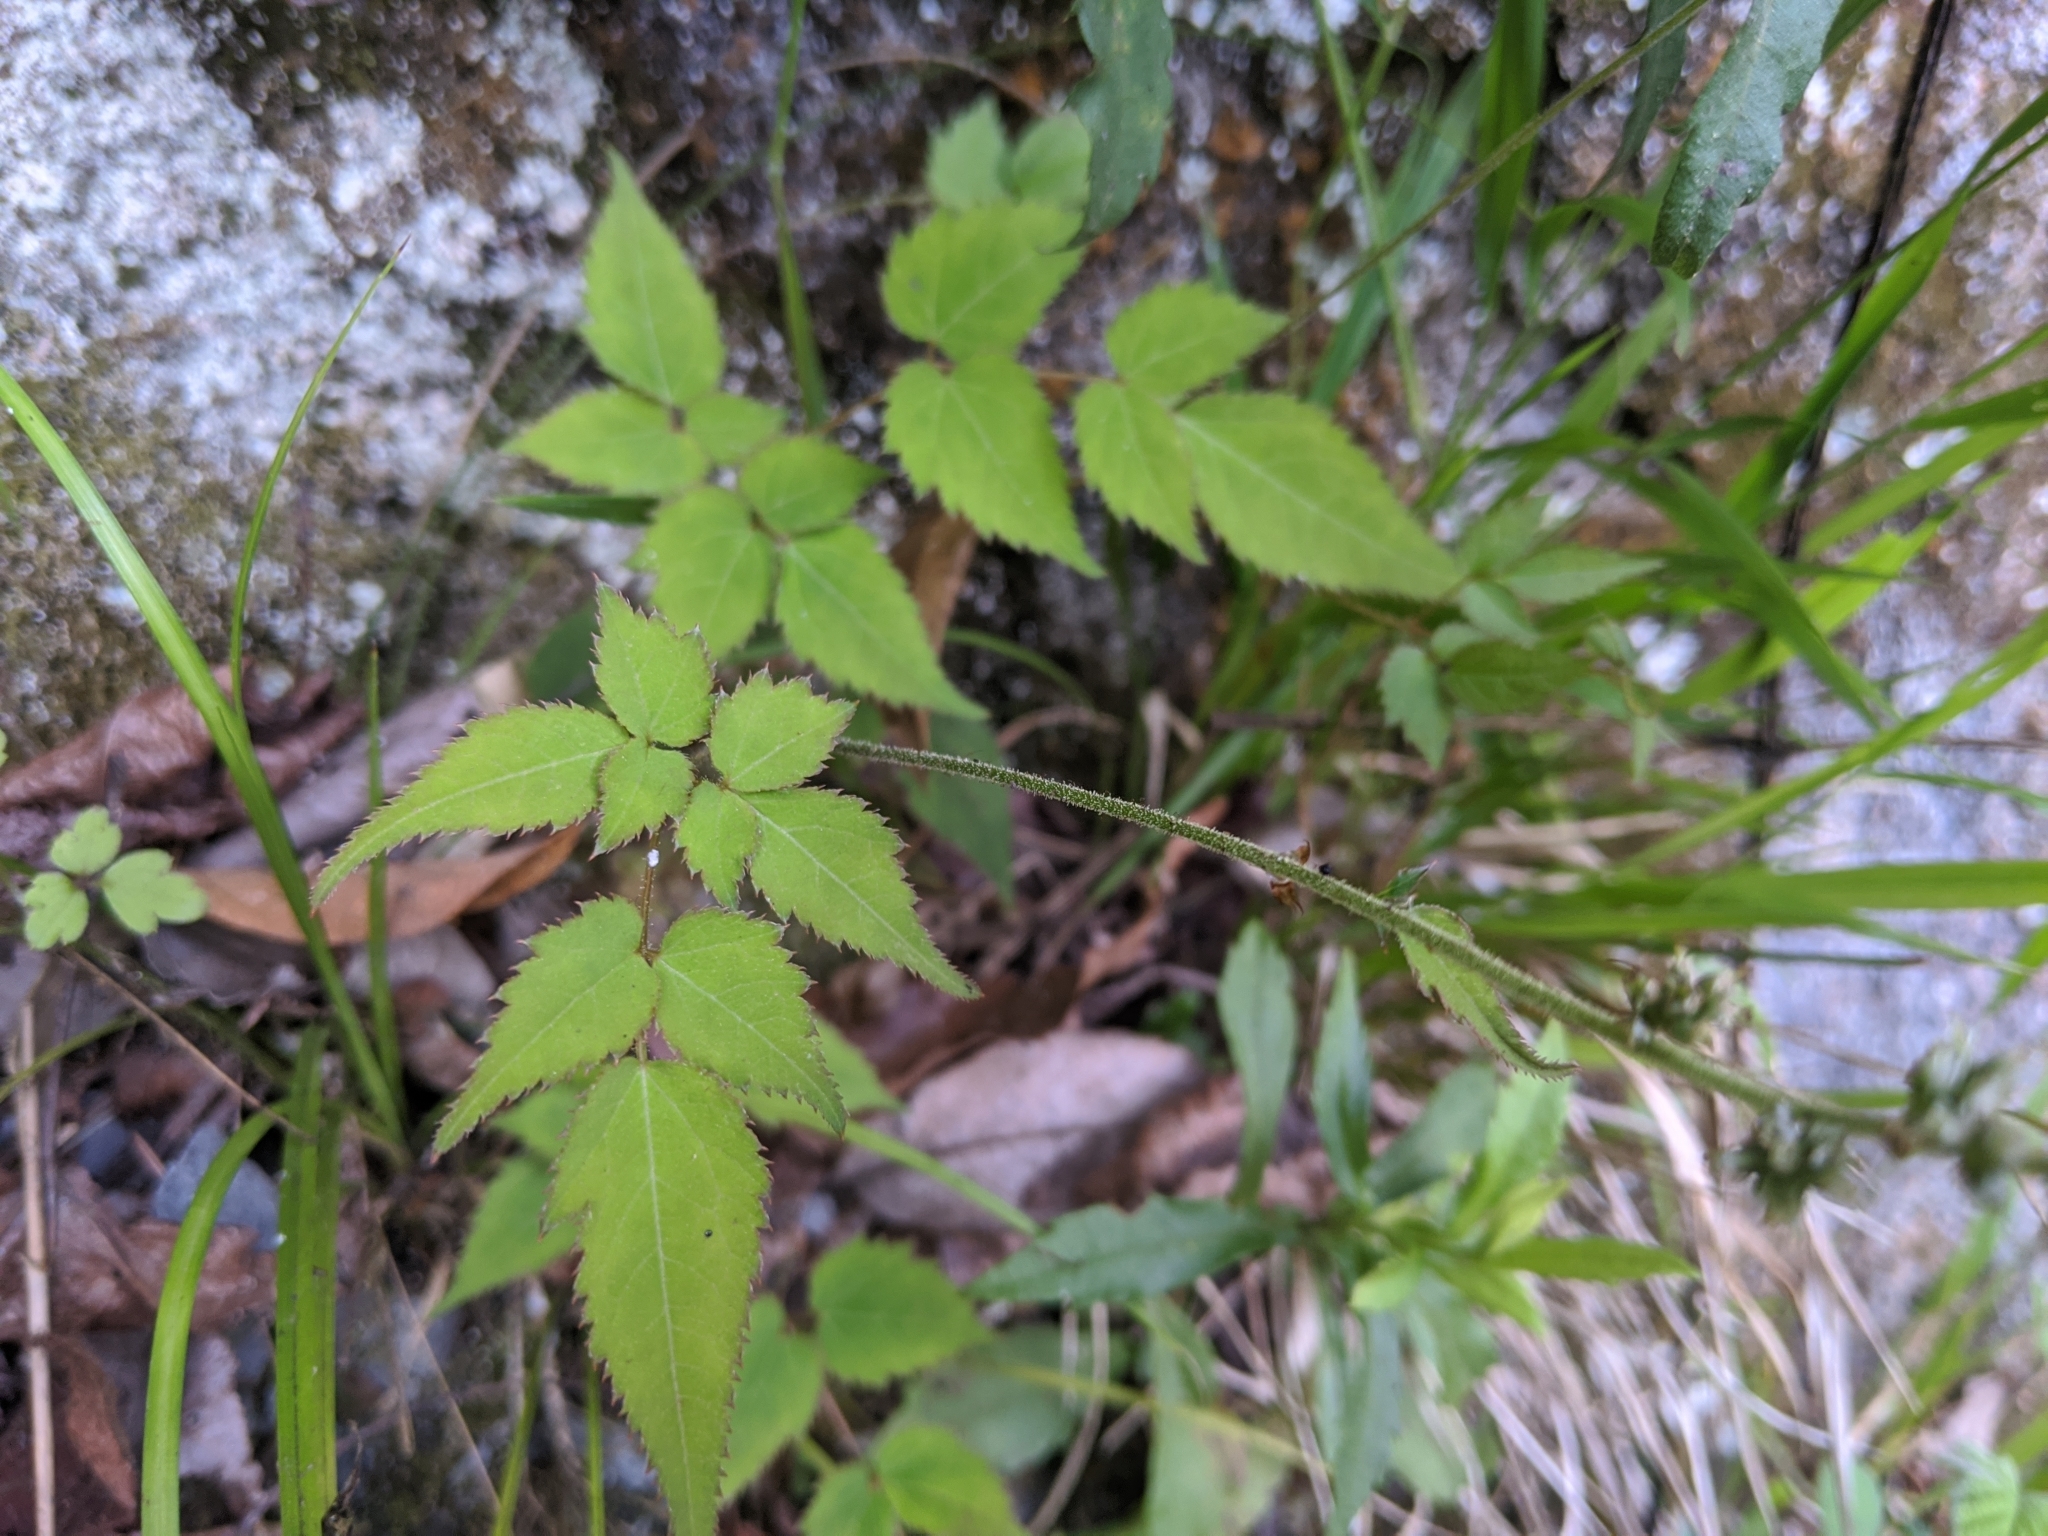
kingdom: Plantae
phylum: Tracheophyta
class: Magnoliopsida
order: Saxifragales
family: Saxifragaceae
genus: Astilbe
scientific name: Astilbe longicarpa
